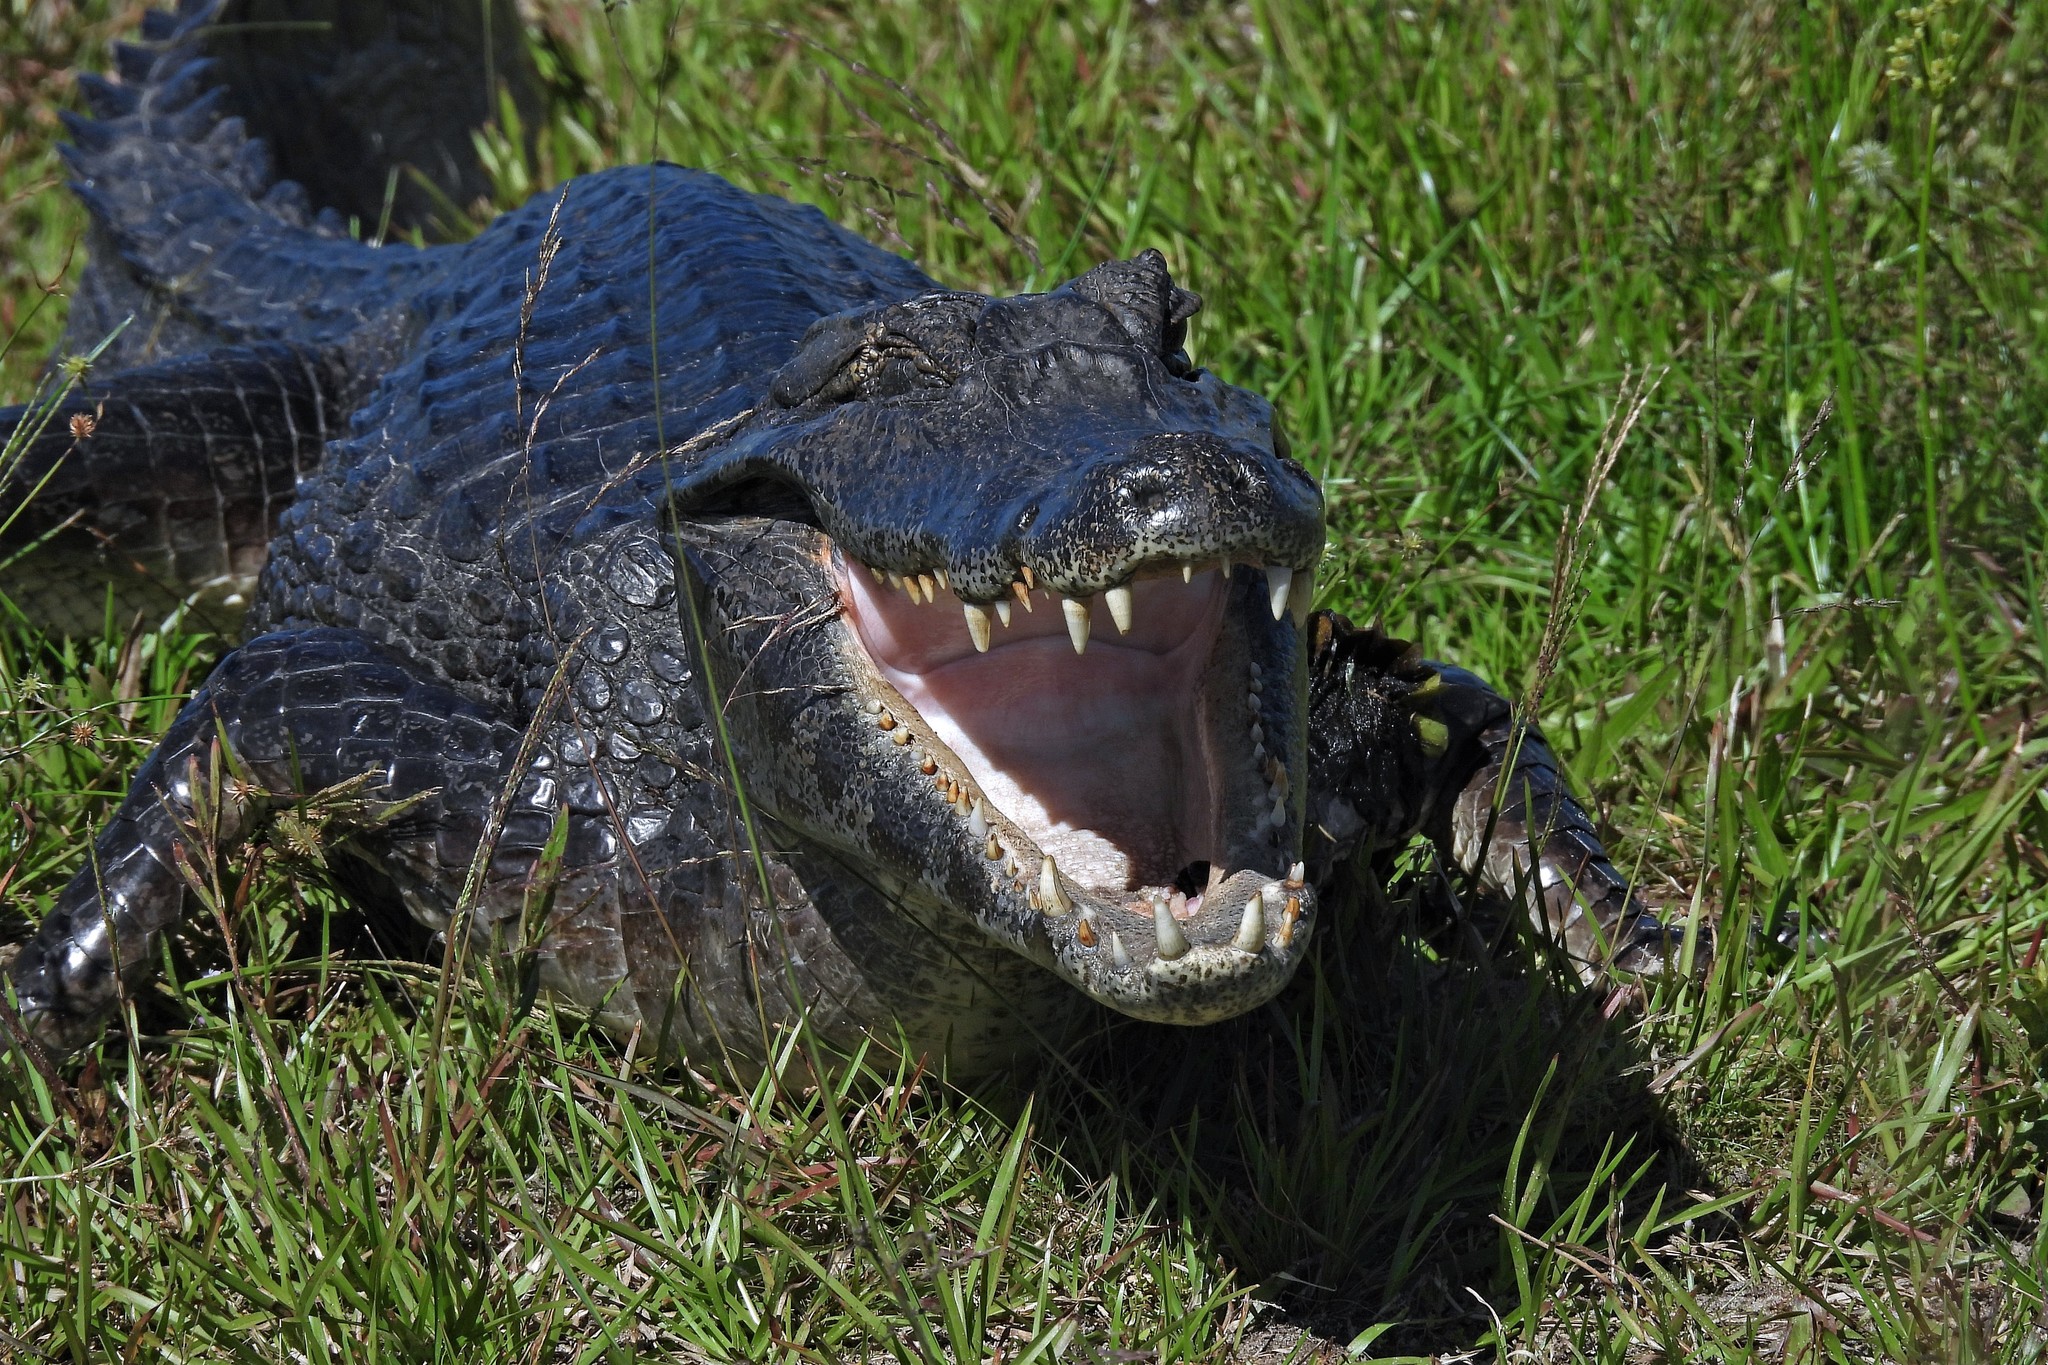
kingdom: Animalia
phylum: Chordata
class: Crocodylia
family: Alligatoridae
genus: Caiman
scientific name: Caiman yacare
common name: Yacare caiman
